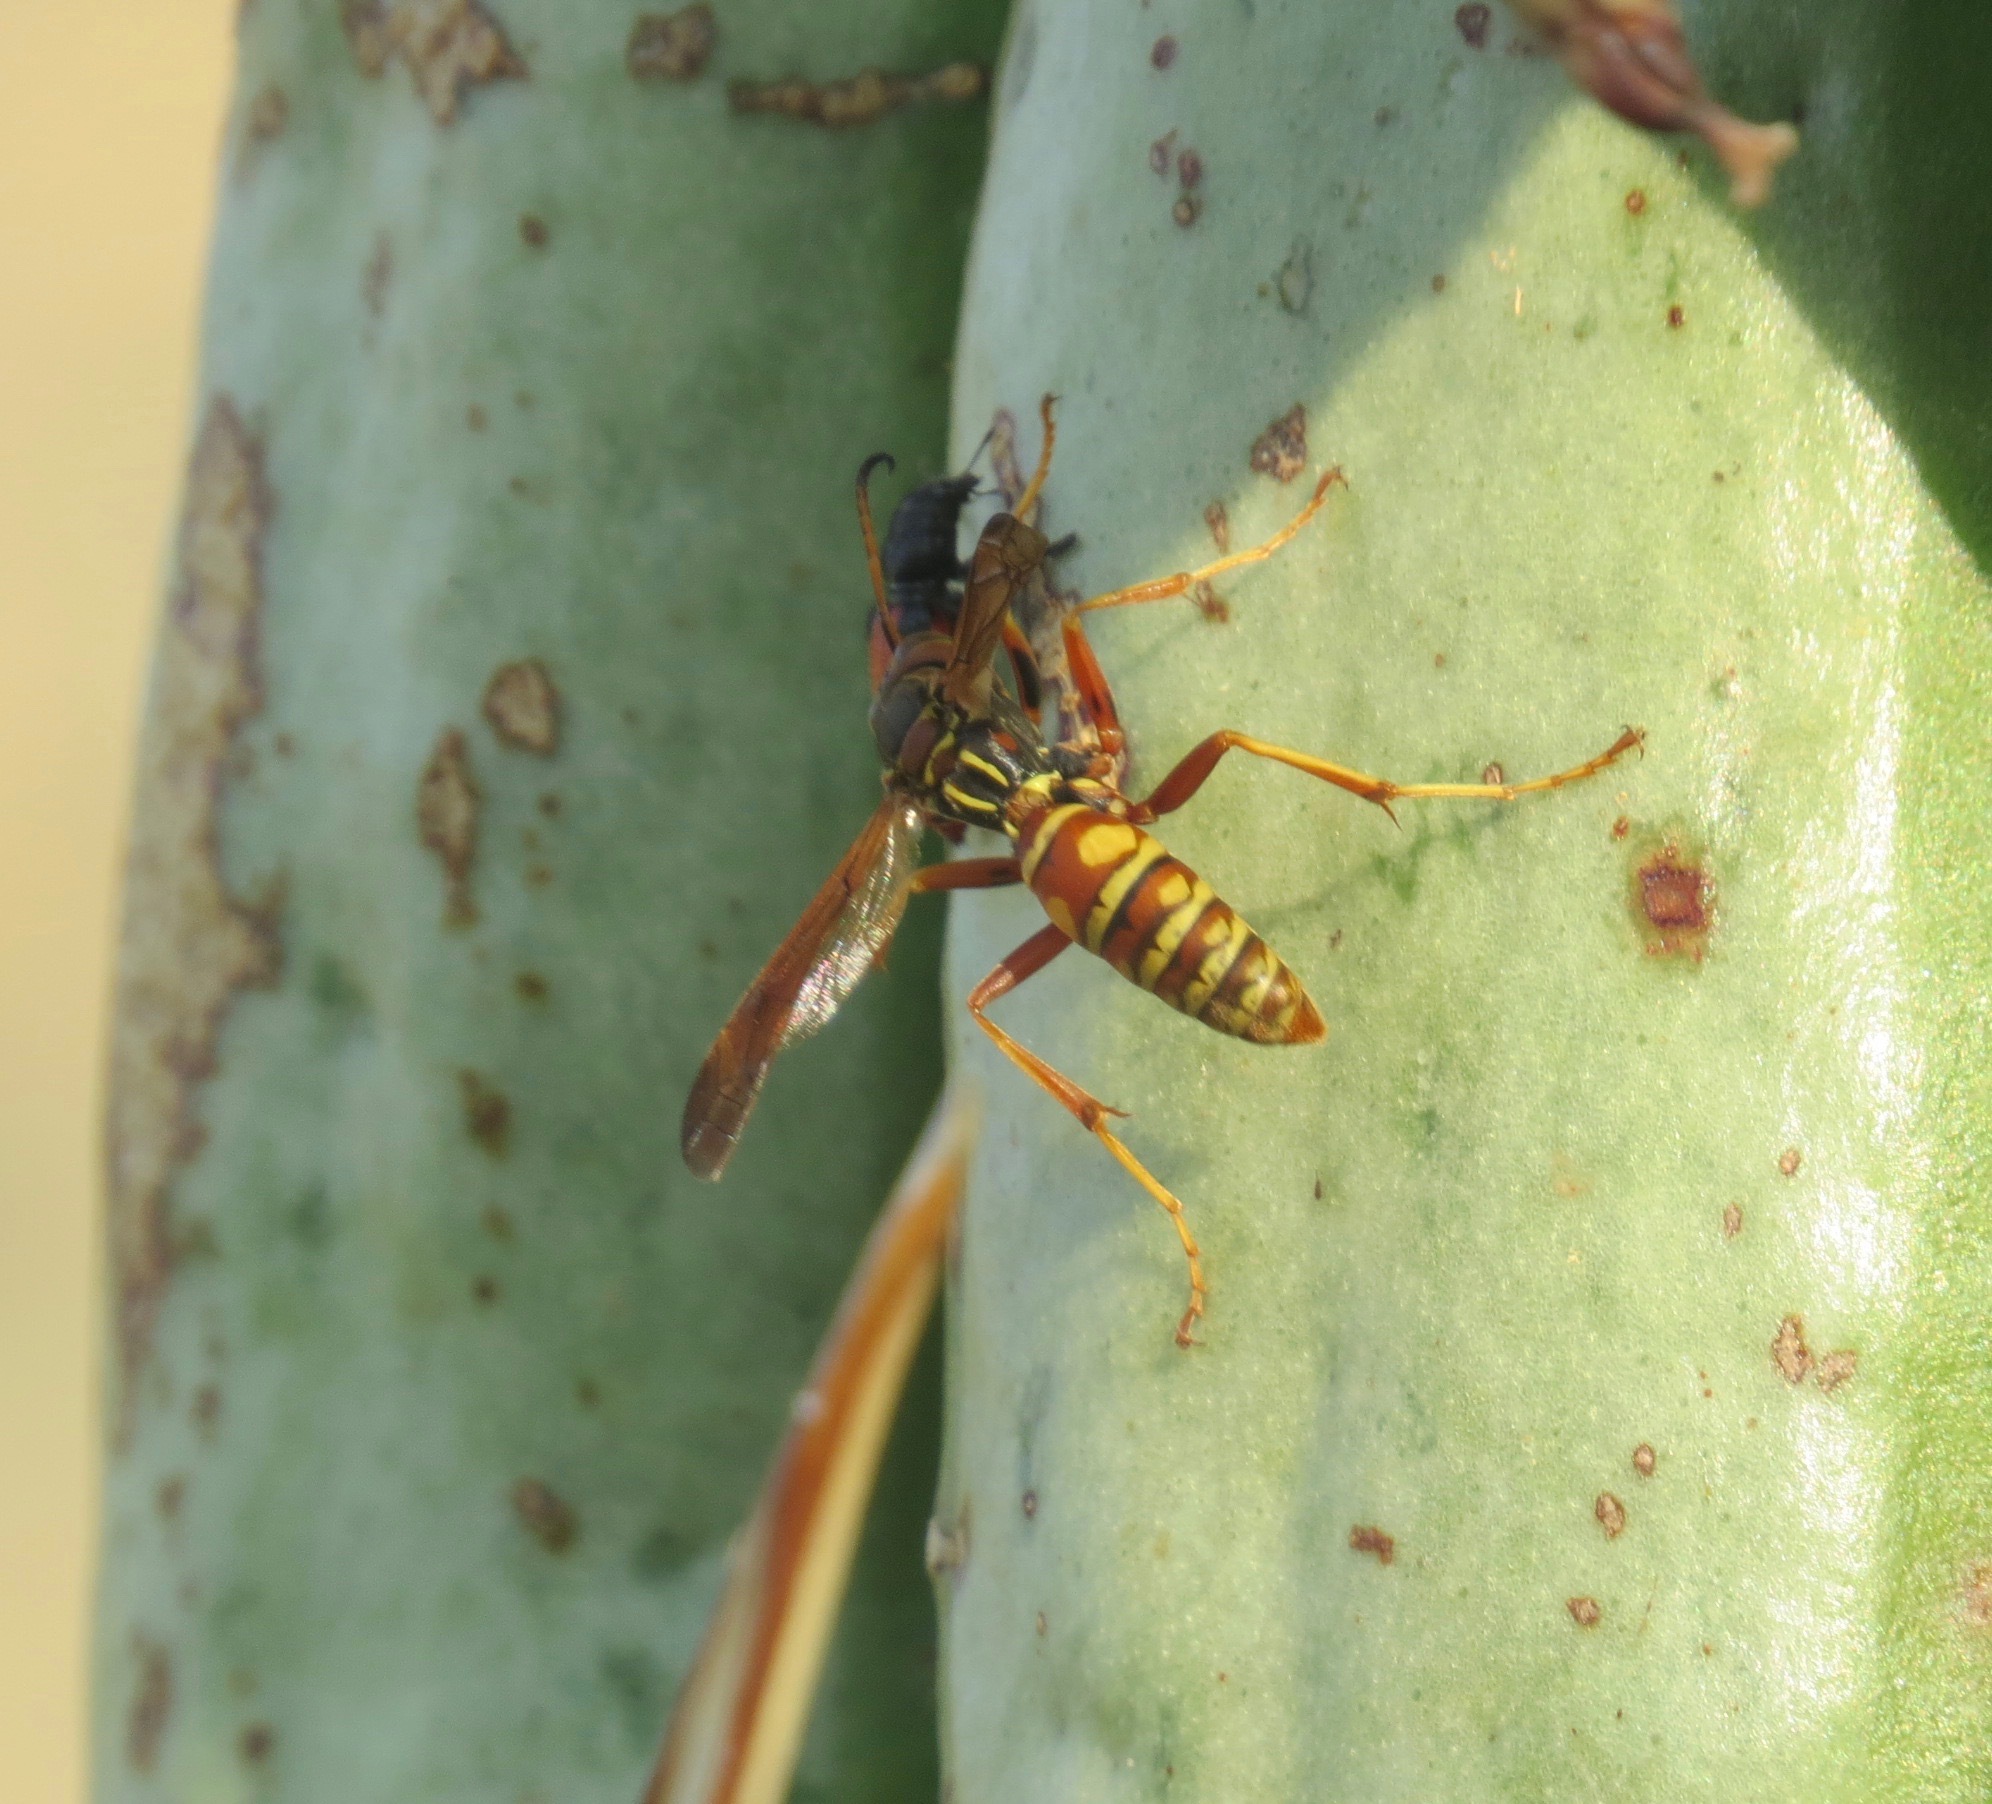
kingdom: Animalia
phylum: Arthropoda
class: Insecta
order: Hymenoptera
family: Eumenidae
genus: Polistes
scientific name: Polistes aurifer
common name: Paper wasp
